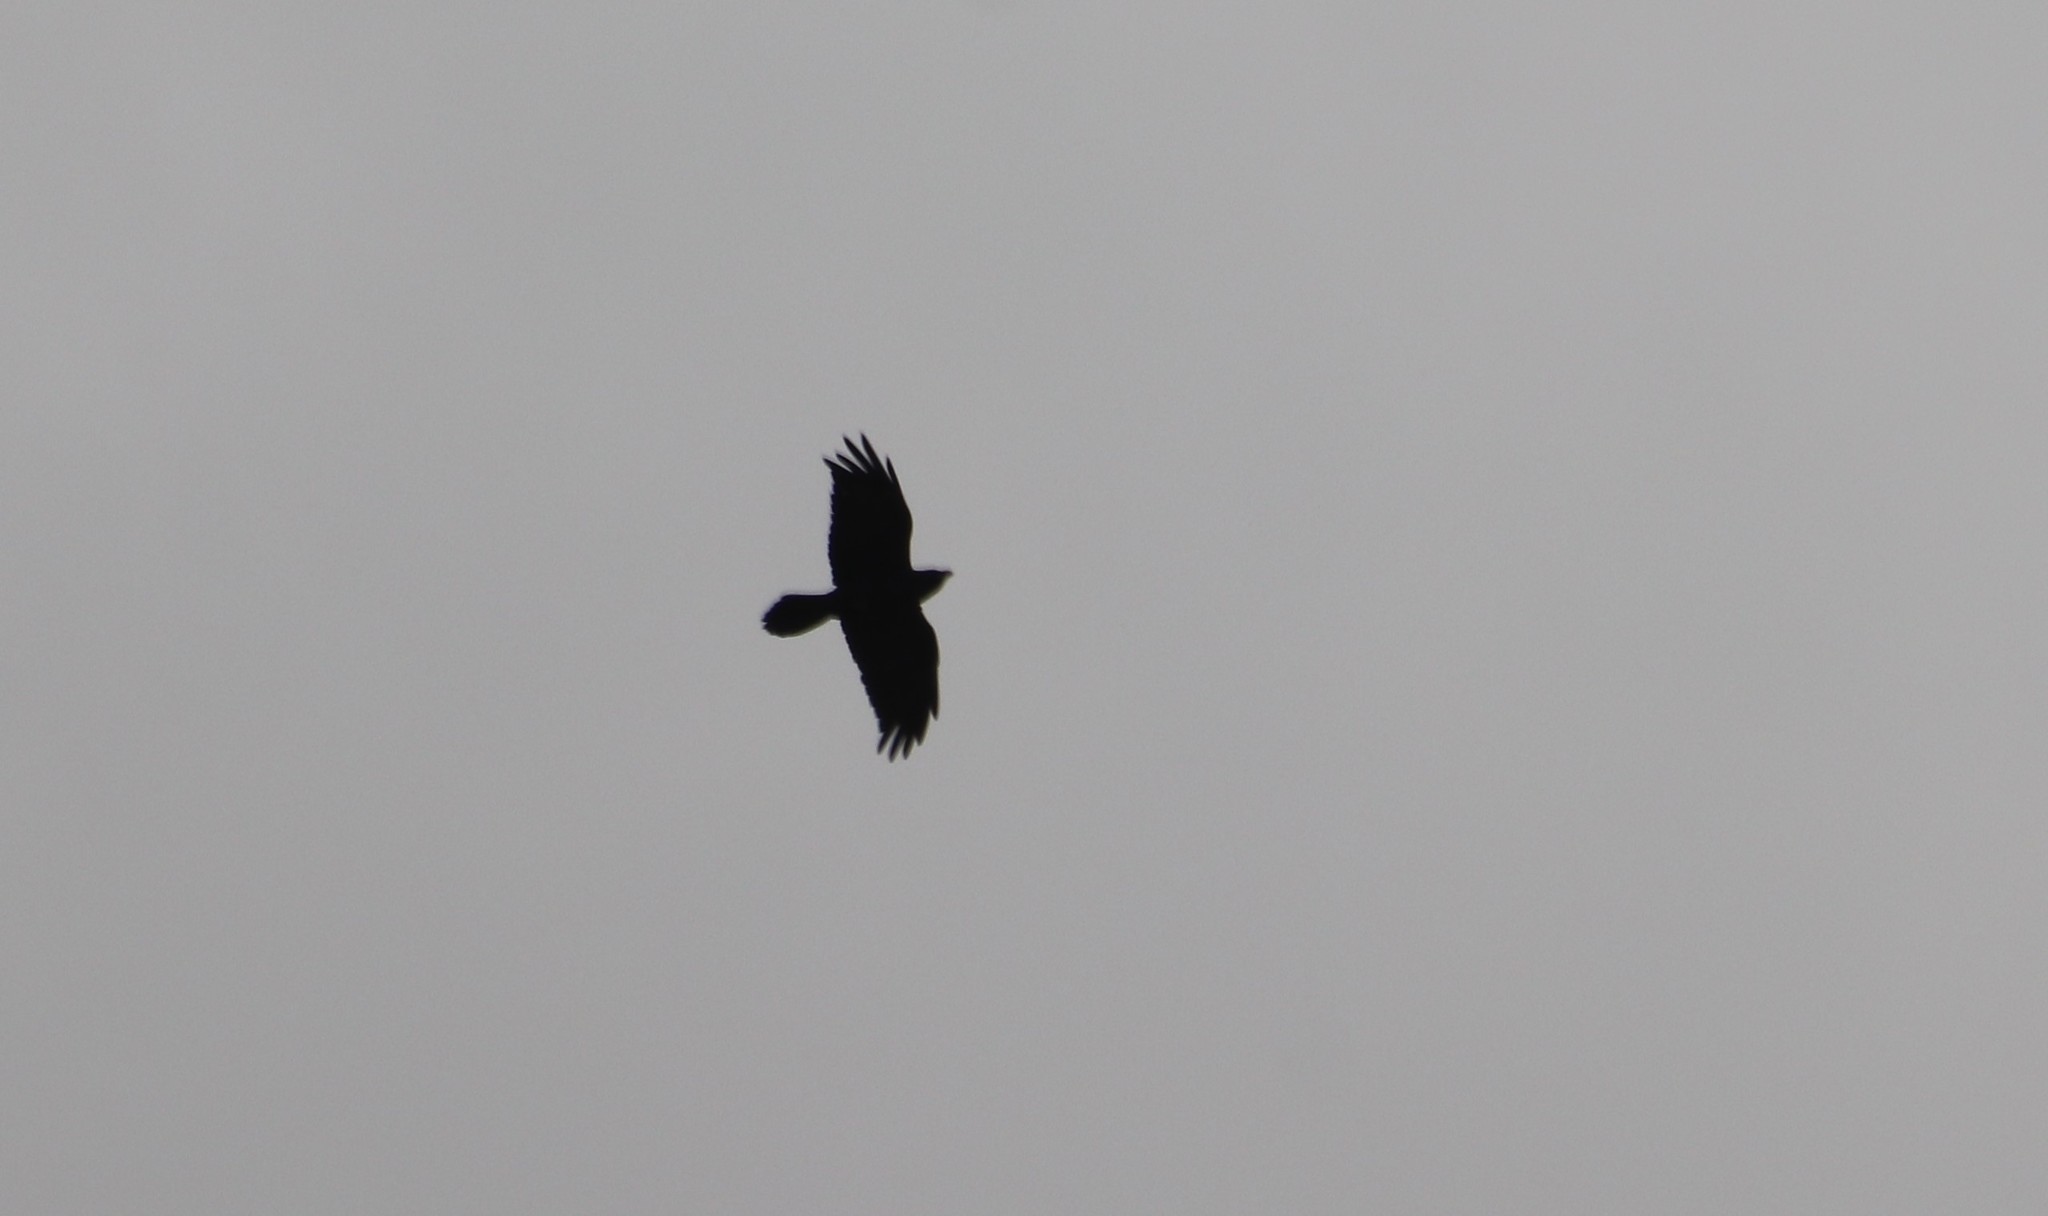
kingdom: Animalia
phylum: Chordata
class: Aves
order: Passeriformes
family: Corvidae
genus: Corvus
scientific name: Corvus corax
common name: Common raven
